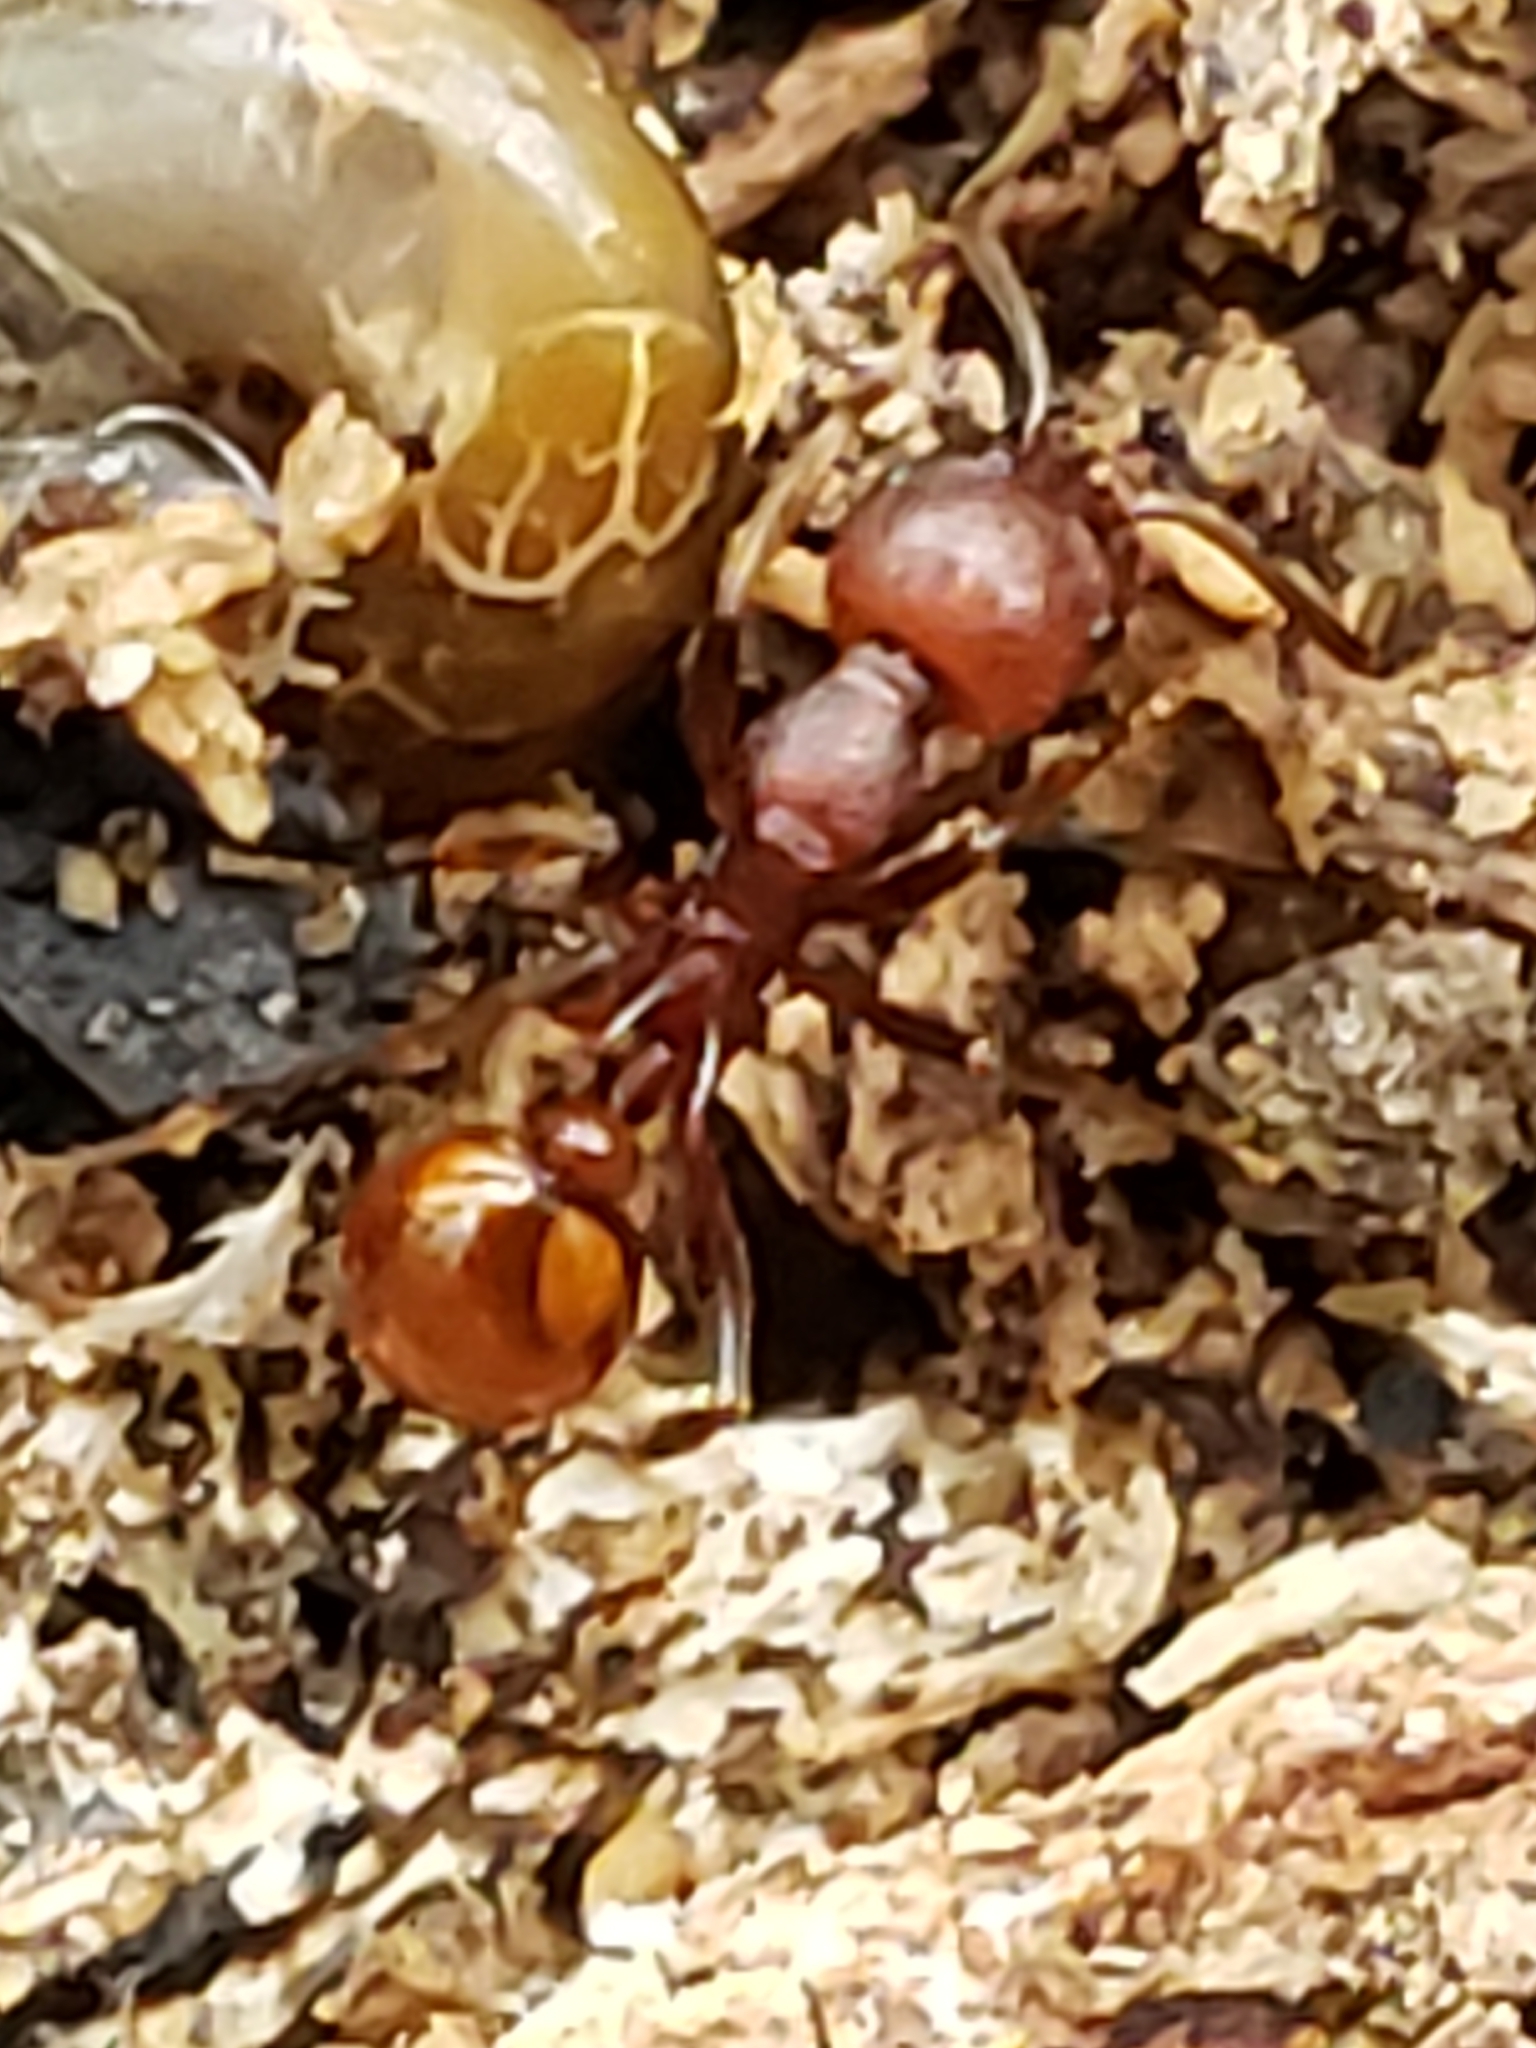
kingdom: Animalia
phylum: Arthropoda
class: Insecta
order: Hymenoptera
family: Formicidae
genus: Aphaenogaster
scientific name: Aphaenogaster tennesseensis
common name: Tennessee thread-waisted ant
